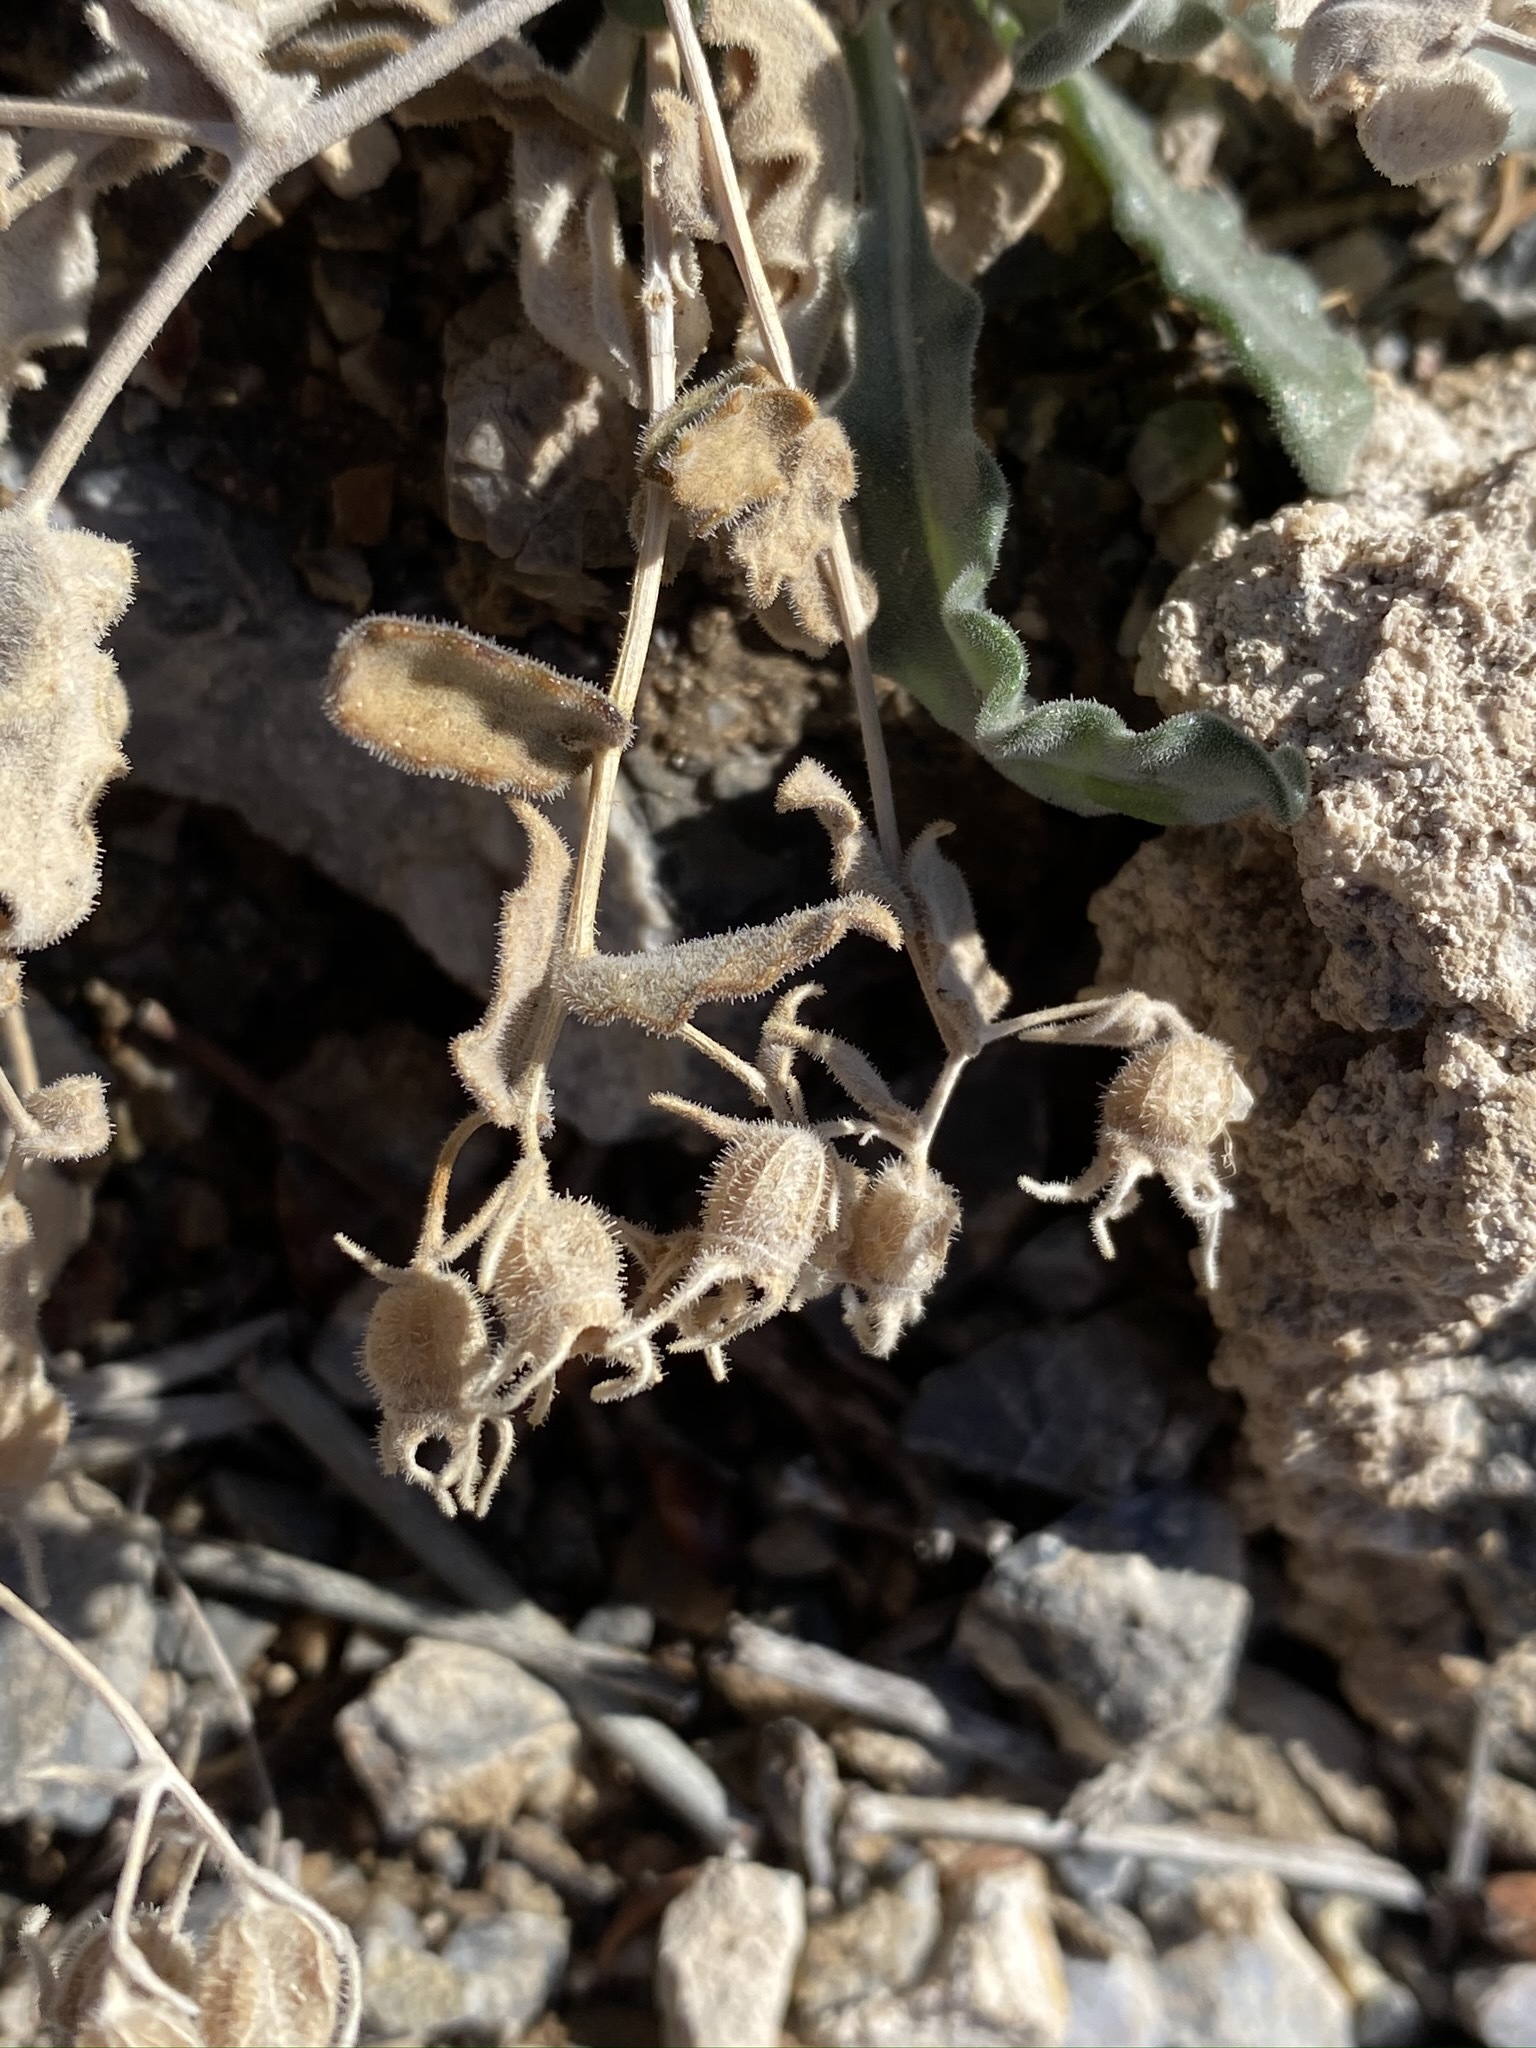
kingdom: Plantae
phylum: Tracheophyta
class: Magnoliopsida
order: Cornales
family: Loasaceae
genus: Mentzelia
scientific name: Mentzelia oreophila
